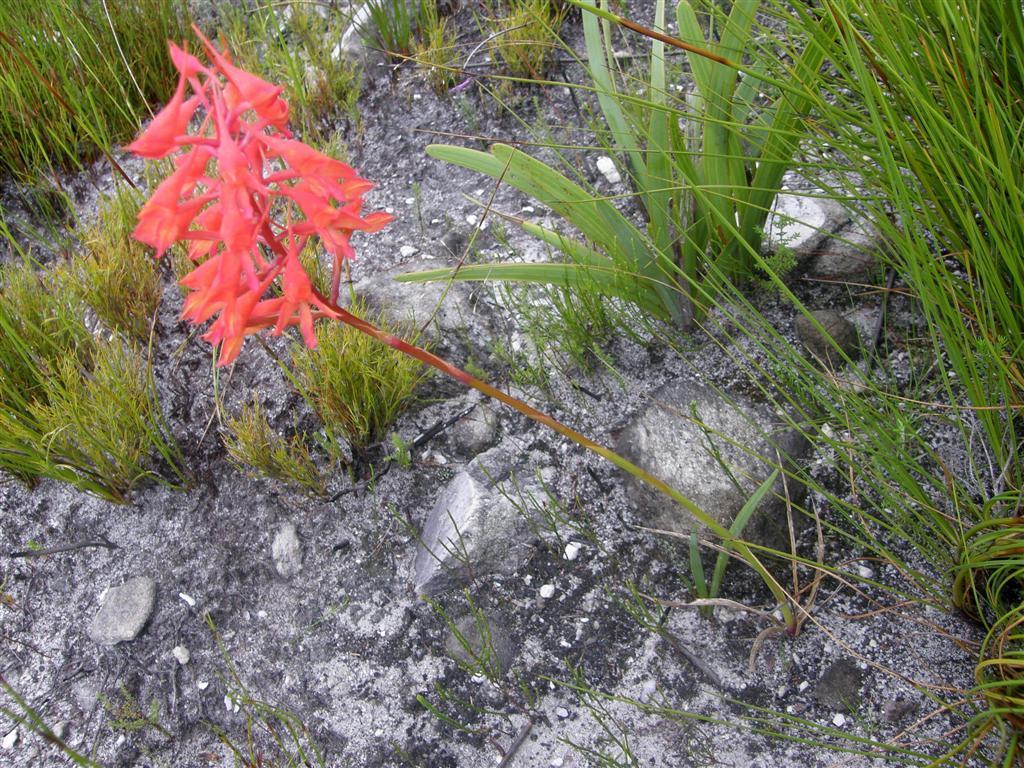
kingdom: Plantae
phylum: Tracheophyta
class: Liliopsida
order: Asparagales
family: Orchidaceae
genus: Disa
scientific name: Disa ferruginea
